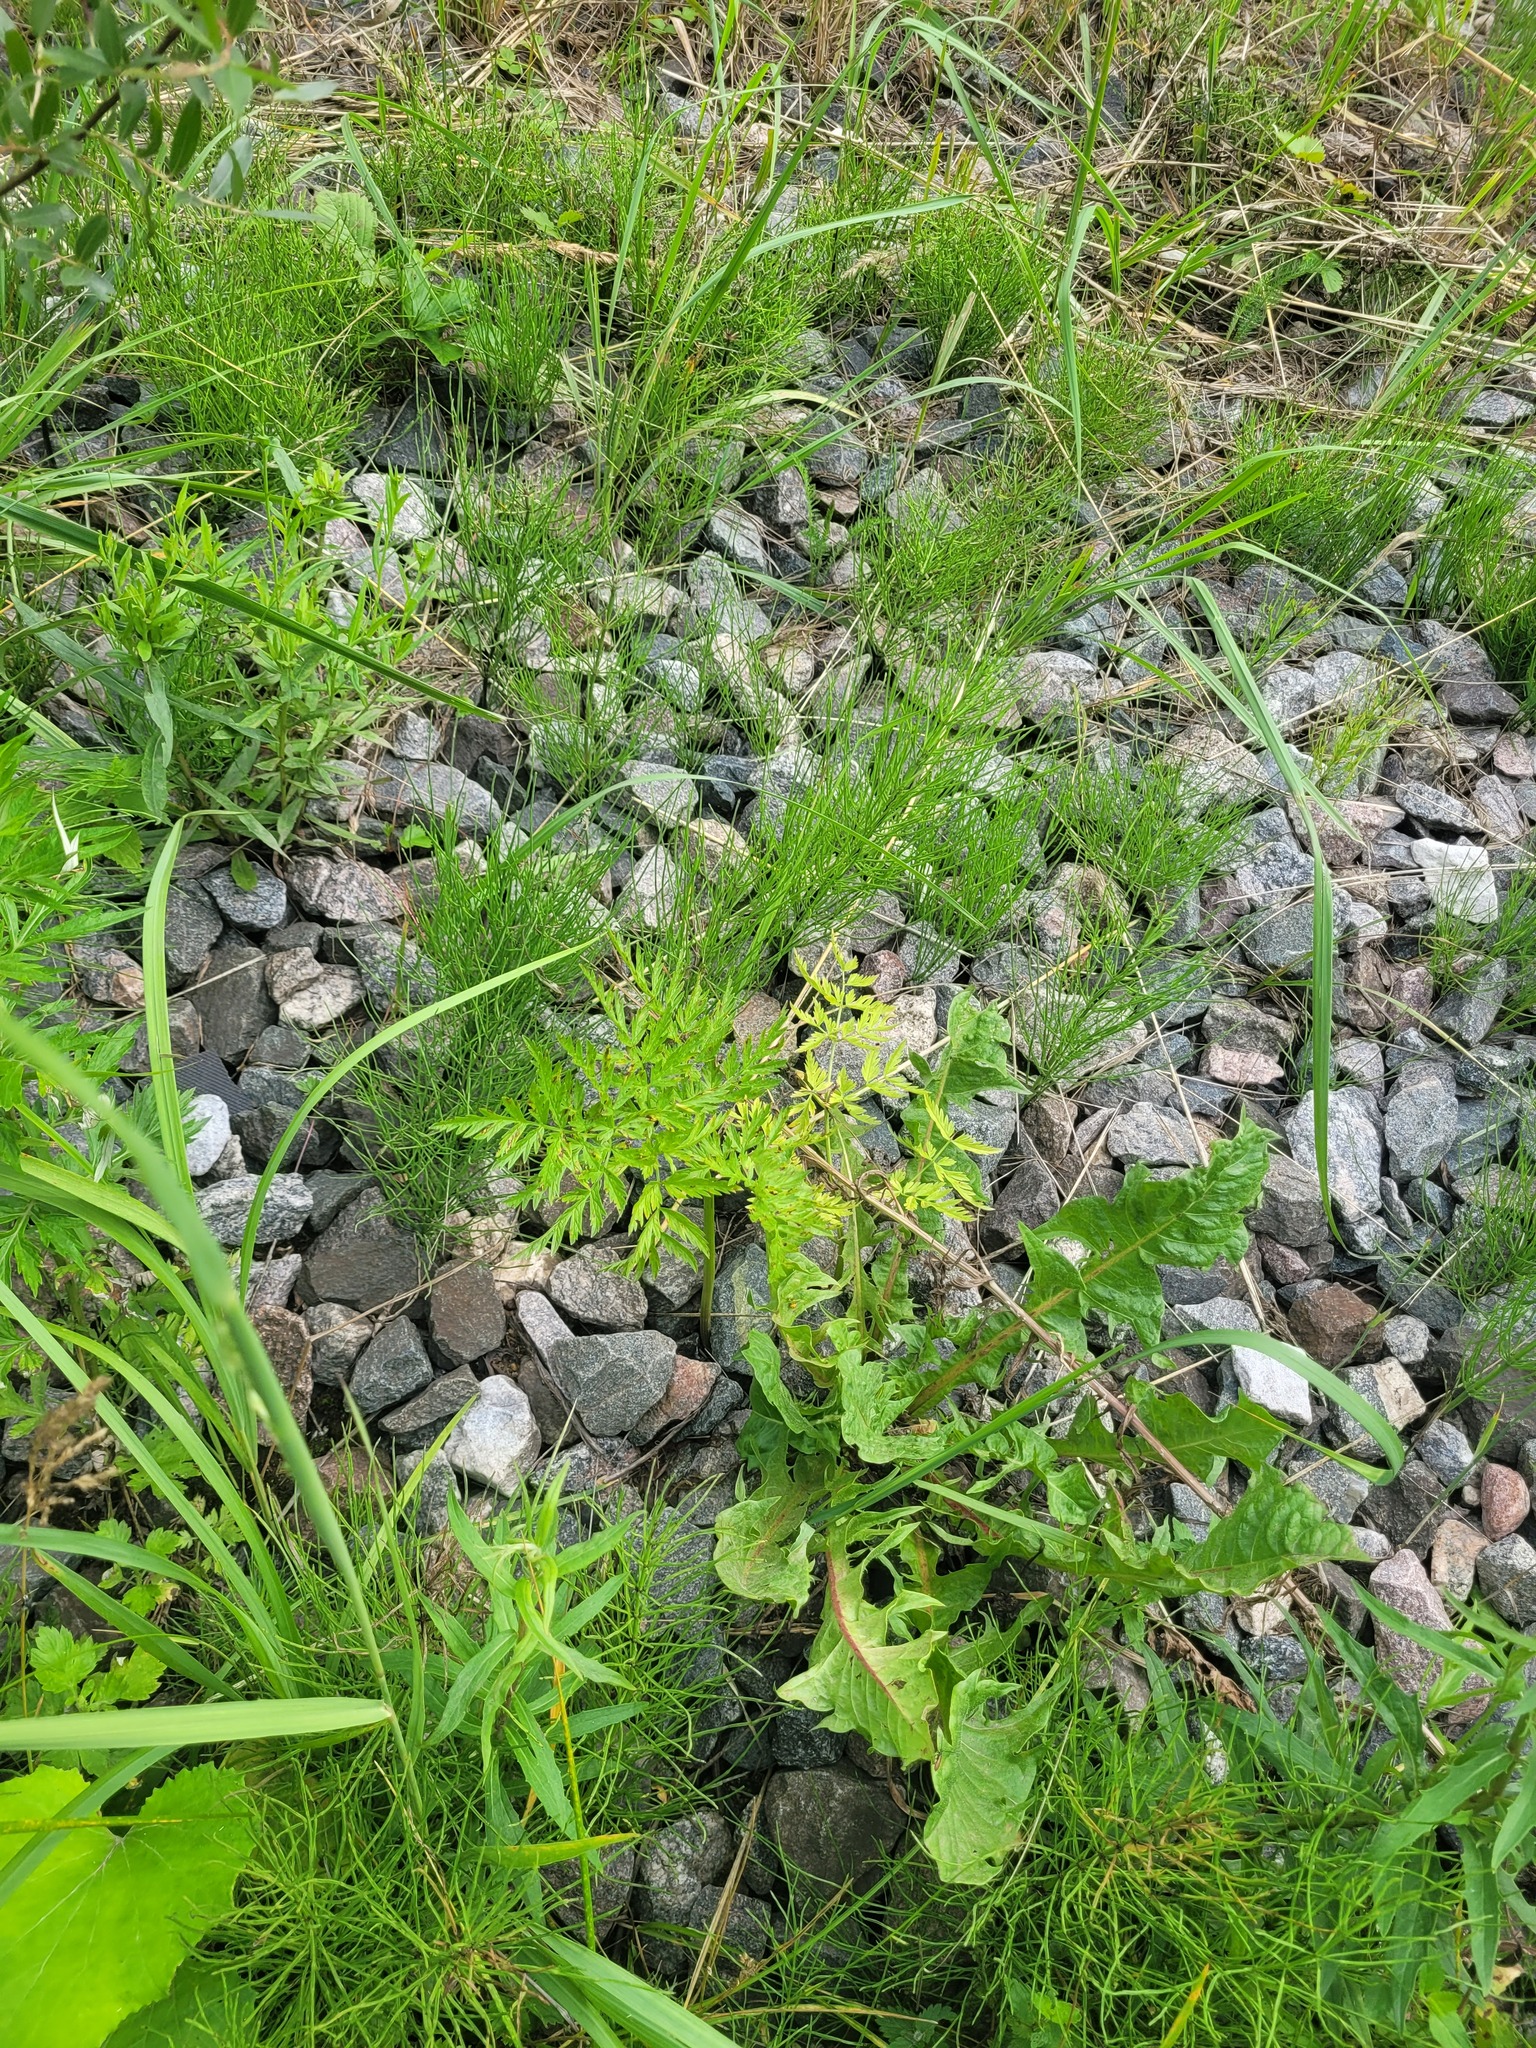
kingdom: Plantae
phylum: Tracheophyta
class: Magnoliopsida
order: Apiales
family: Apiaceae
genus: Anthriscus
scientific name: Anthriscus sylvestris
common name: Cow parsley
